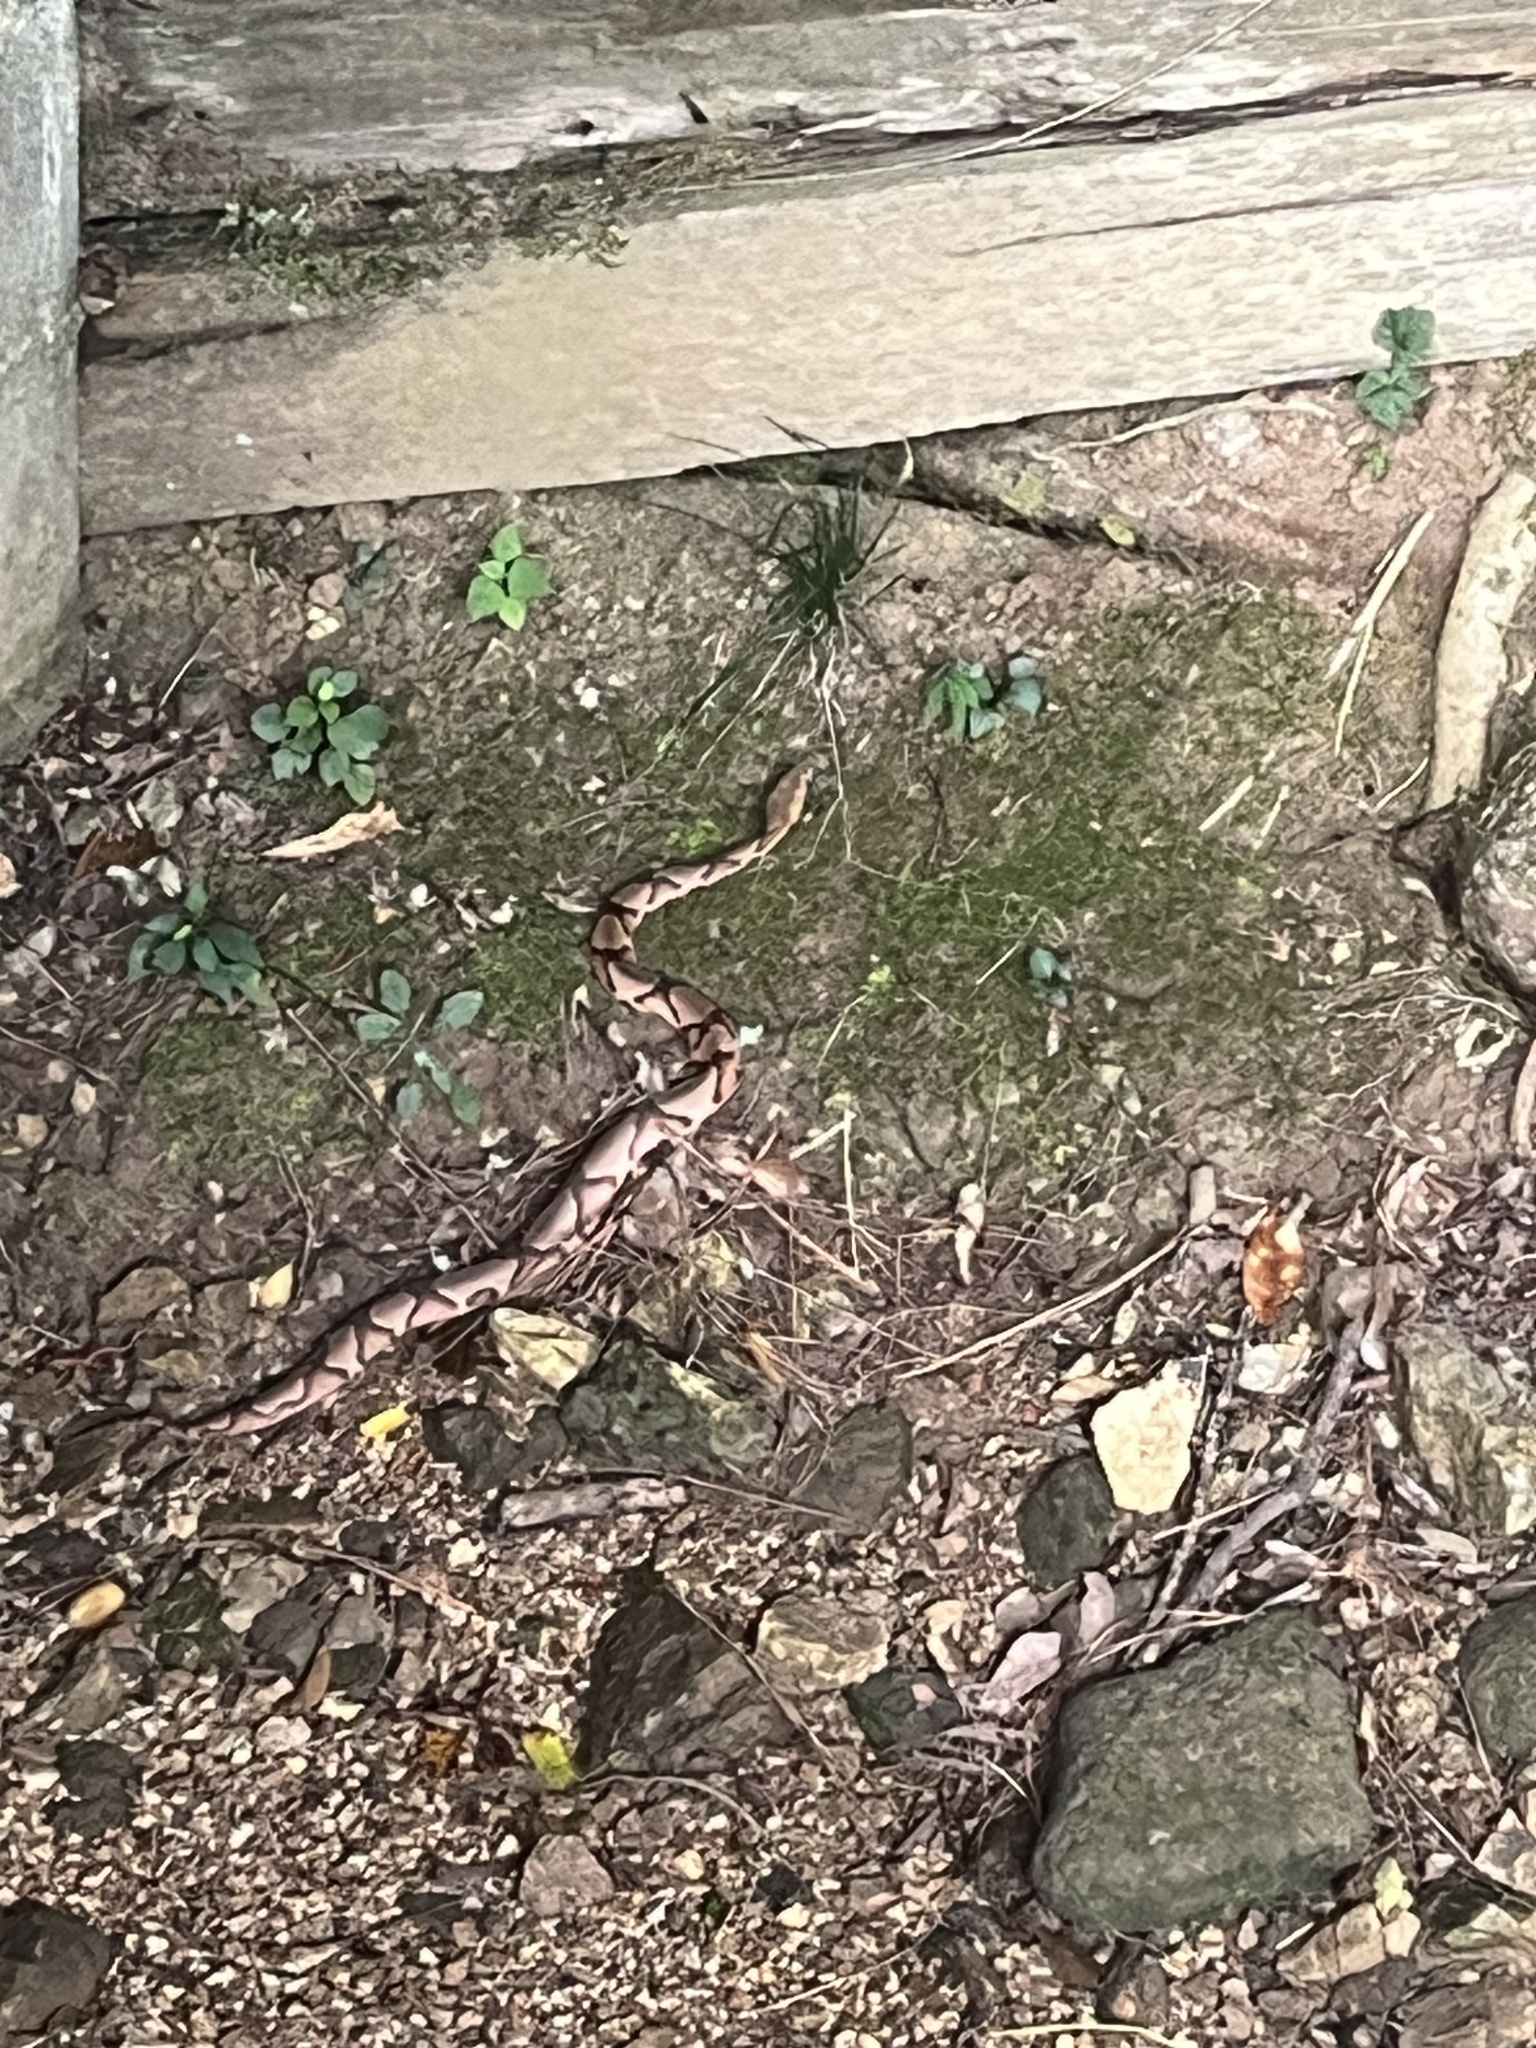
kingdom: Animalia
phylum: Chordata
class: Squamata
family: Viperidae
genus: Agkistrodon
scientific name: Agkistrodon contortrix
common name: Northern copperhead
